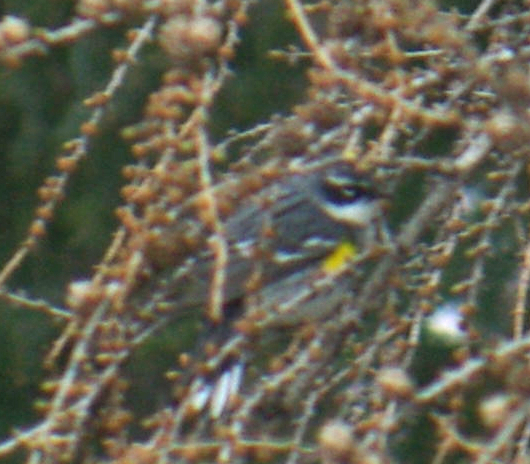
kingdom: Animalia
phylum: Chordata
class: Aves
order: Passeriformes
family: Parulidae
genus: Setophaga
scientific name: Setophaga coronata
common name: Myrtle warbler
